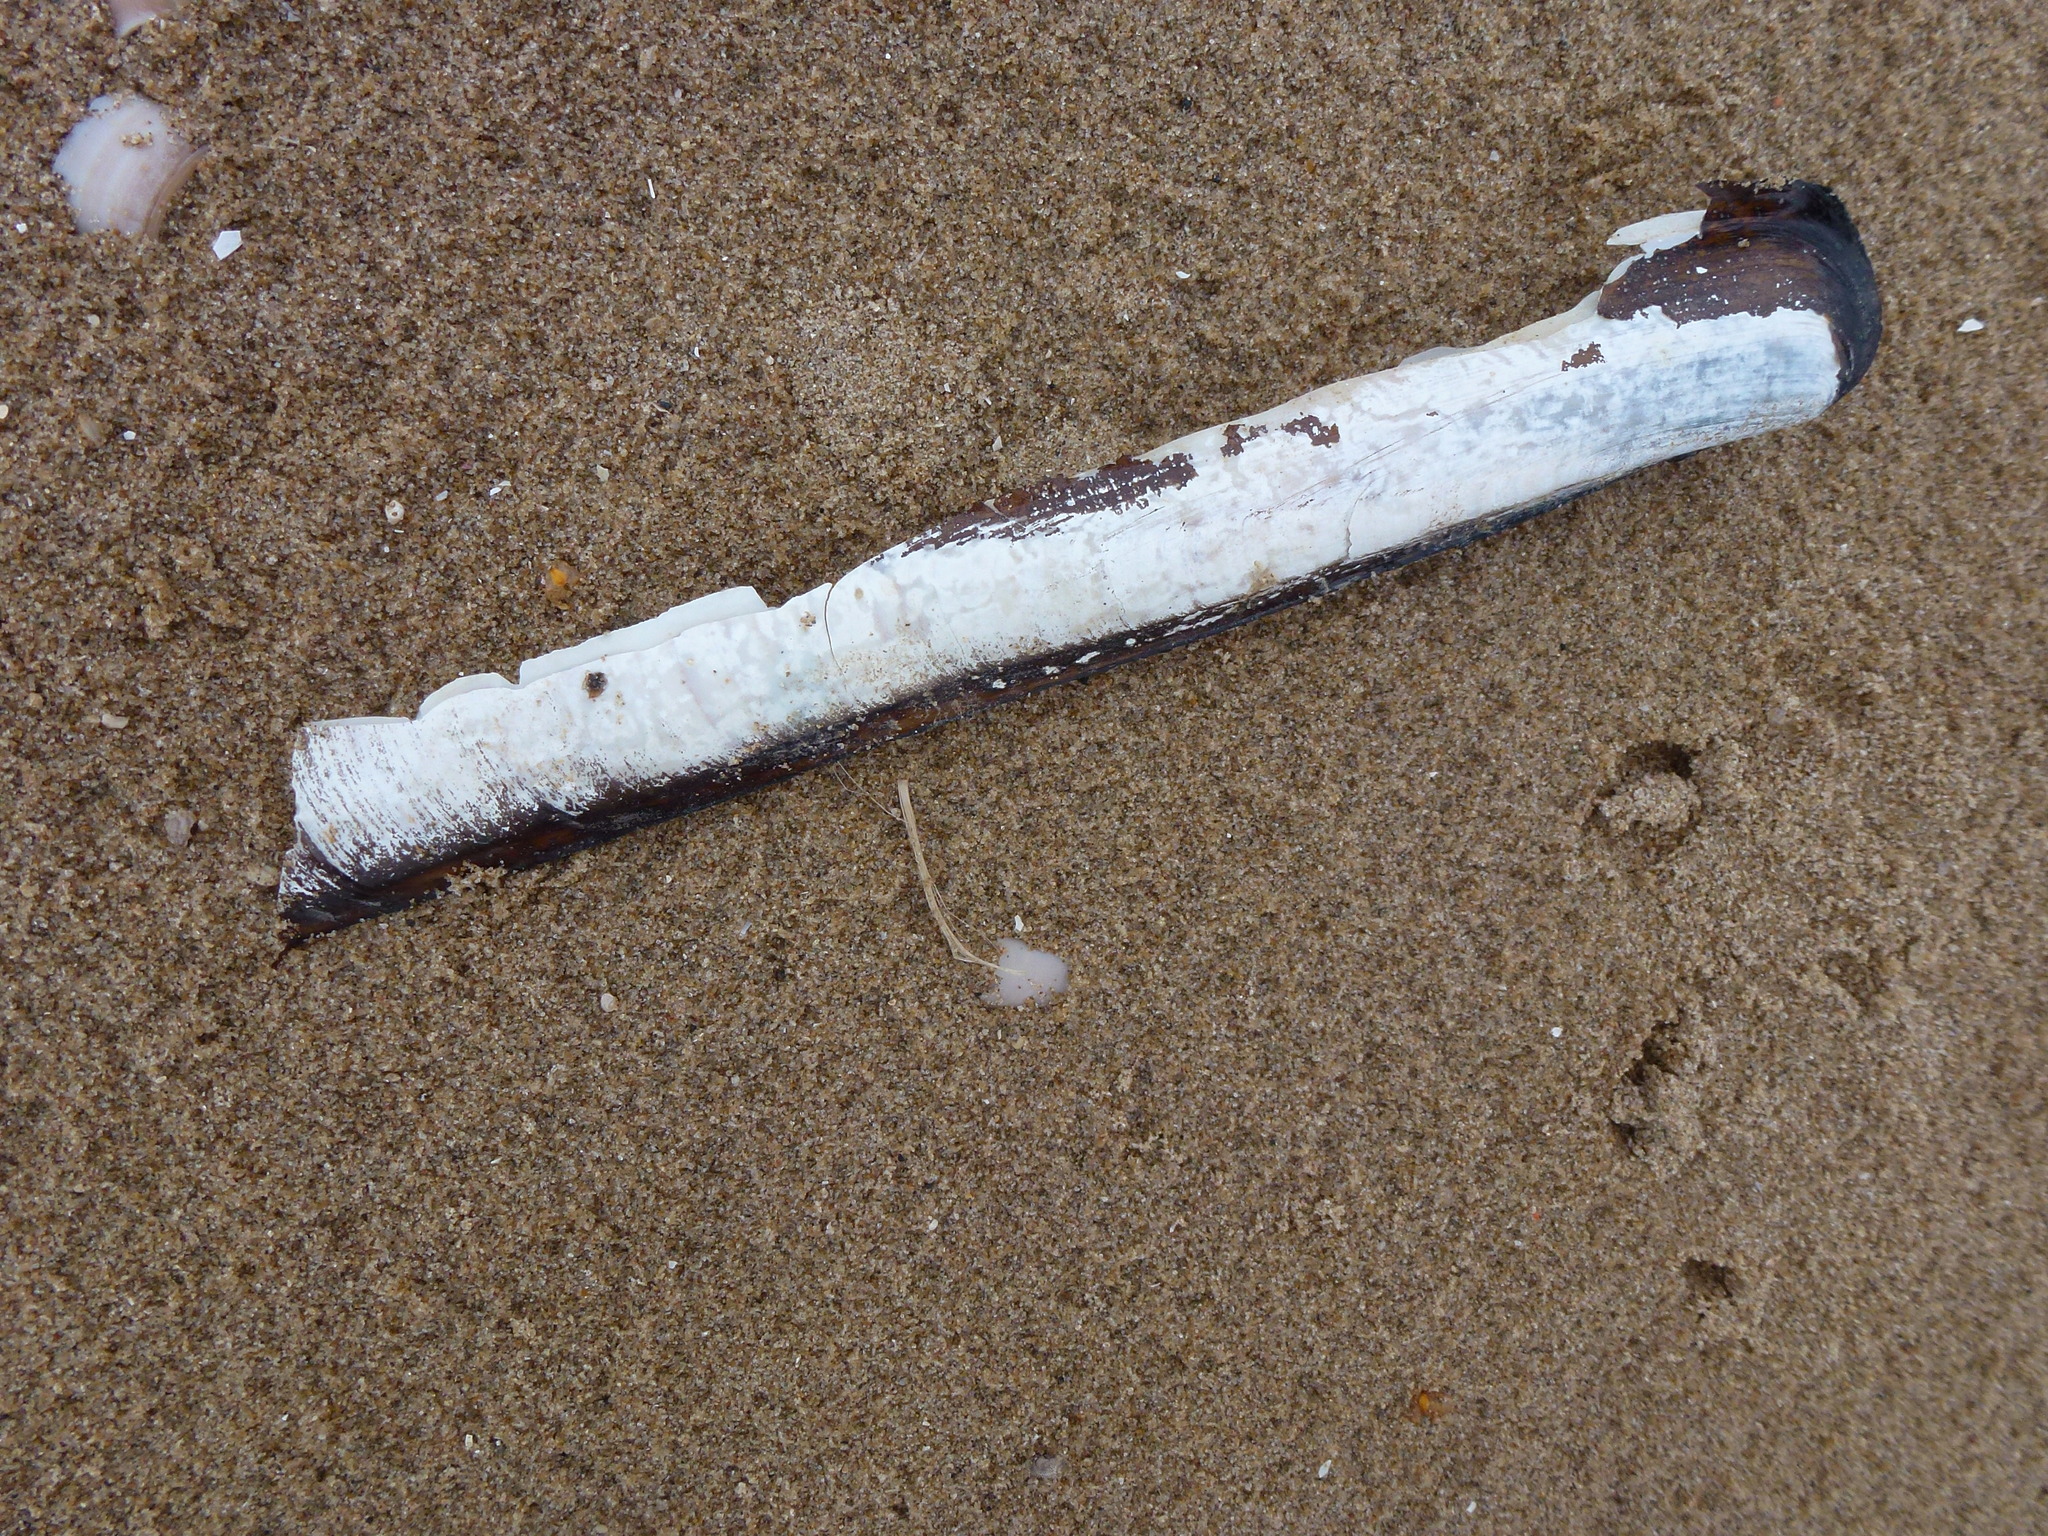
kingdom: Animalia
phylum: Mollusca
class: Bivalvia
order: Adapedonta
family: Pharidae
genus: Ensis
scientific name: Ensis siliqua
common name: Pod razor shell
